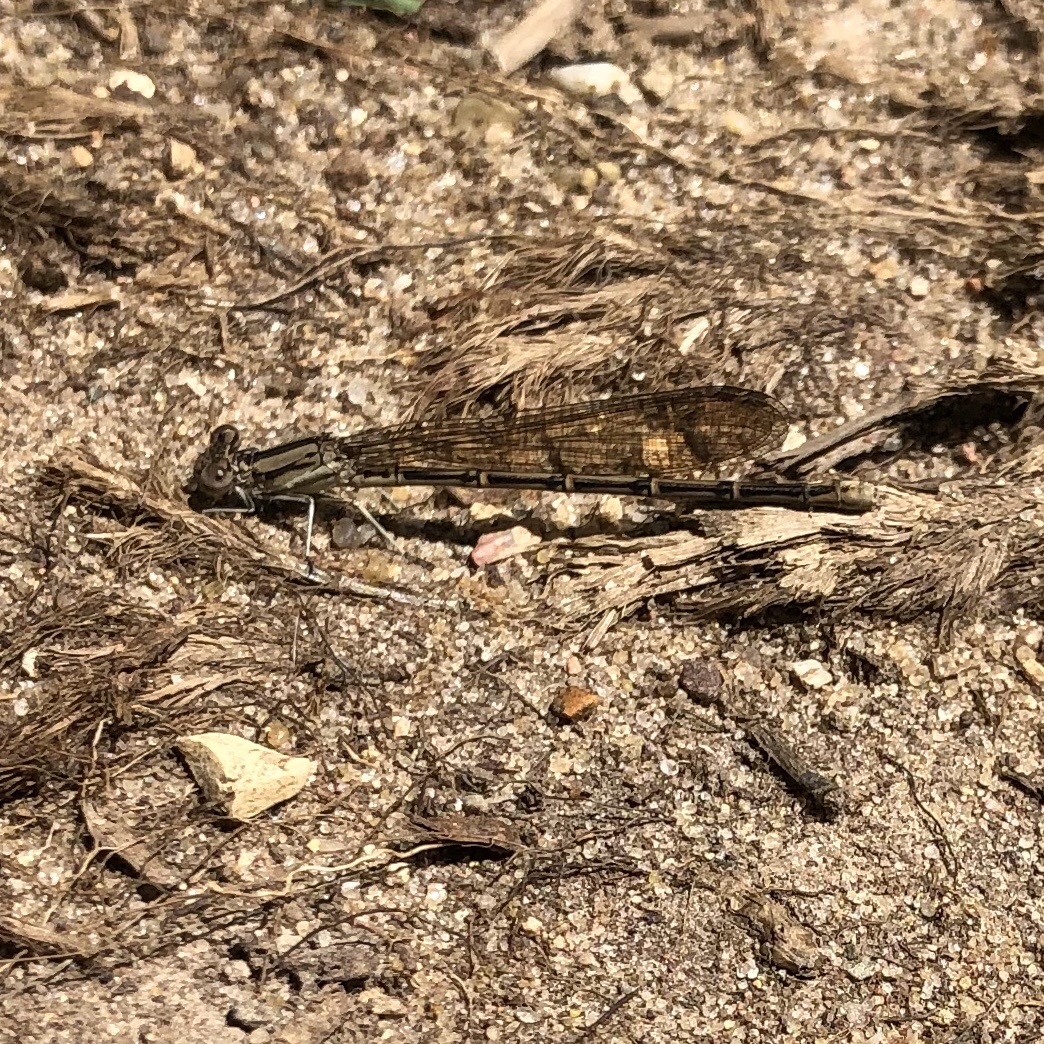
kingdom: Animalia
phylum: Arthropoda
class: Insecta
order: Odonata
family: Coenagrionidae
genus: Argia
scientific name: Argia fumipennis
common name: Variable dancer
